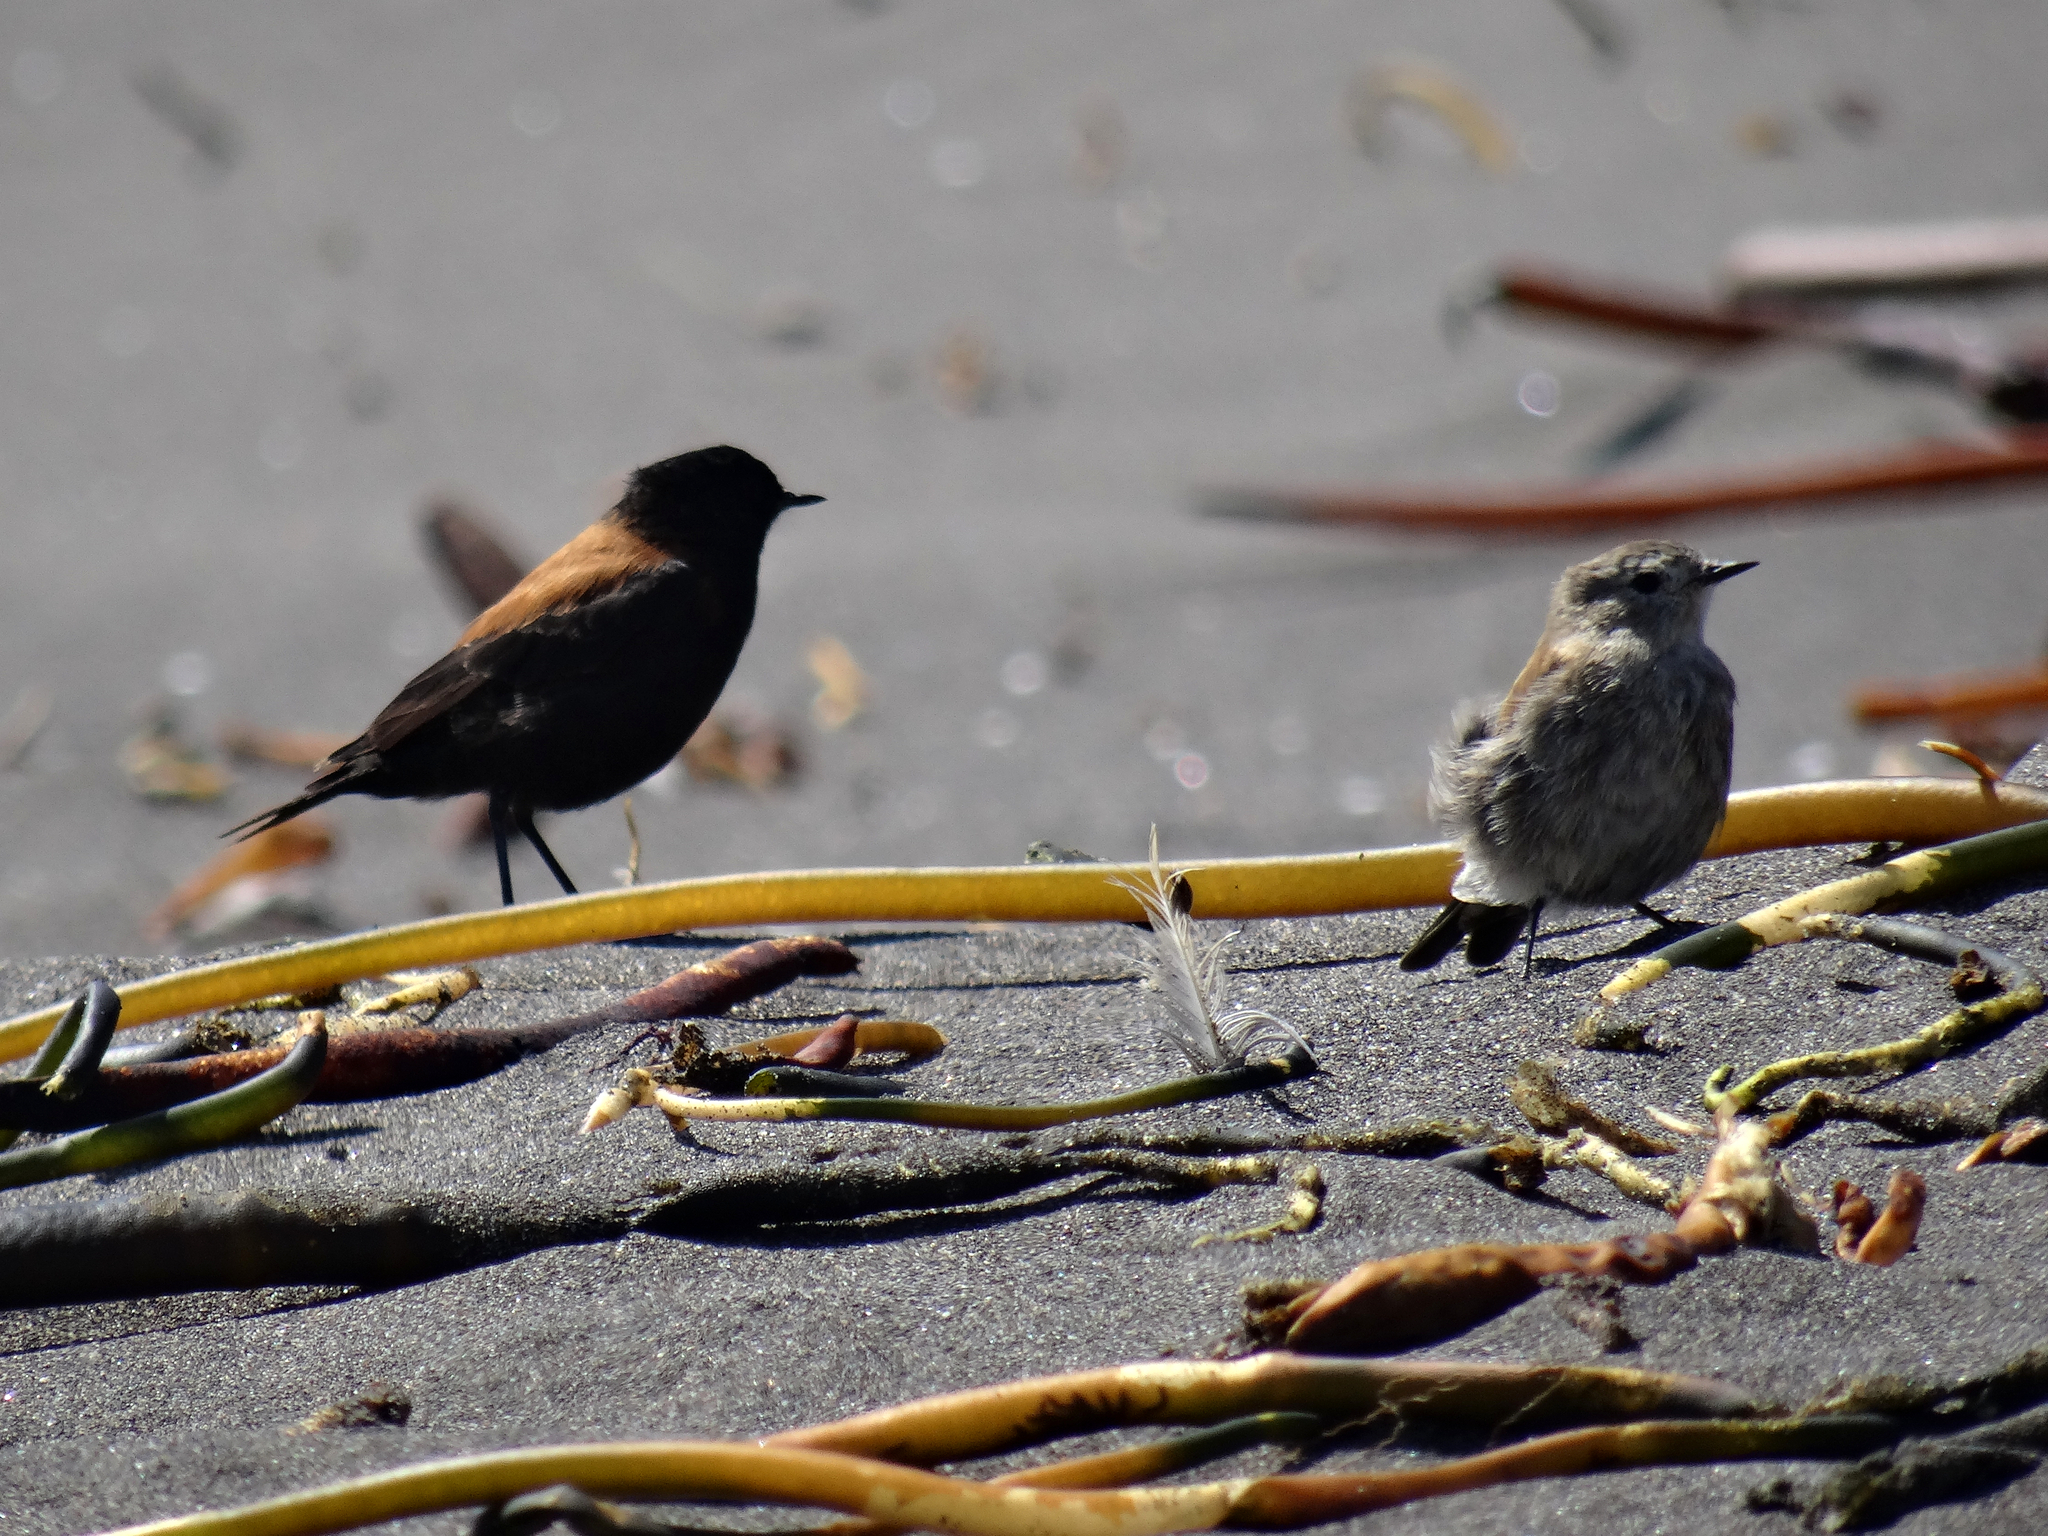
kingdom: Animalia
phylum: Chordata
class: Aves
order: Passeriformes
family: Tyrannidae
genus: Lessonia
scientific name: Lessonia rufa
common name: Austral negrito
